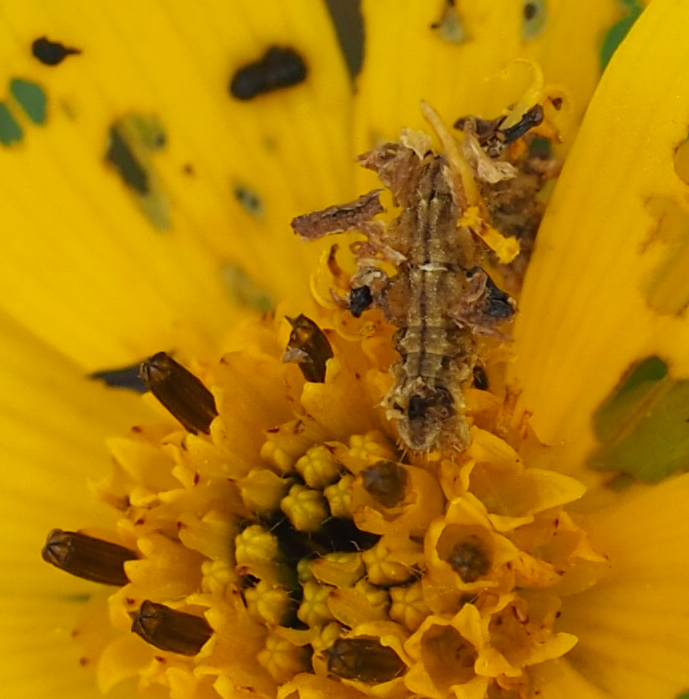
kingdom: Animalia
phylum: Arthropoda
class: Insecta
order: Lepidoptera
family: Geometridae
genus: Synchlora
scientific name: Synchlora aerata
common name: Wavy-lined emerald
